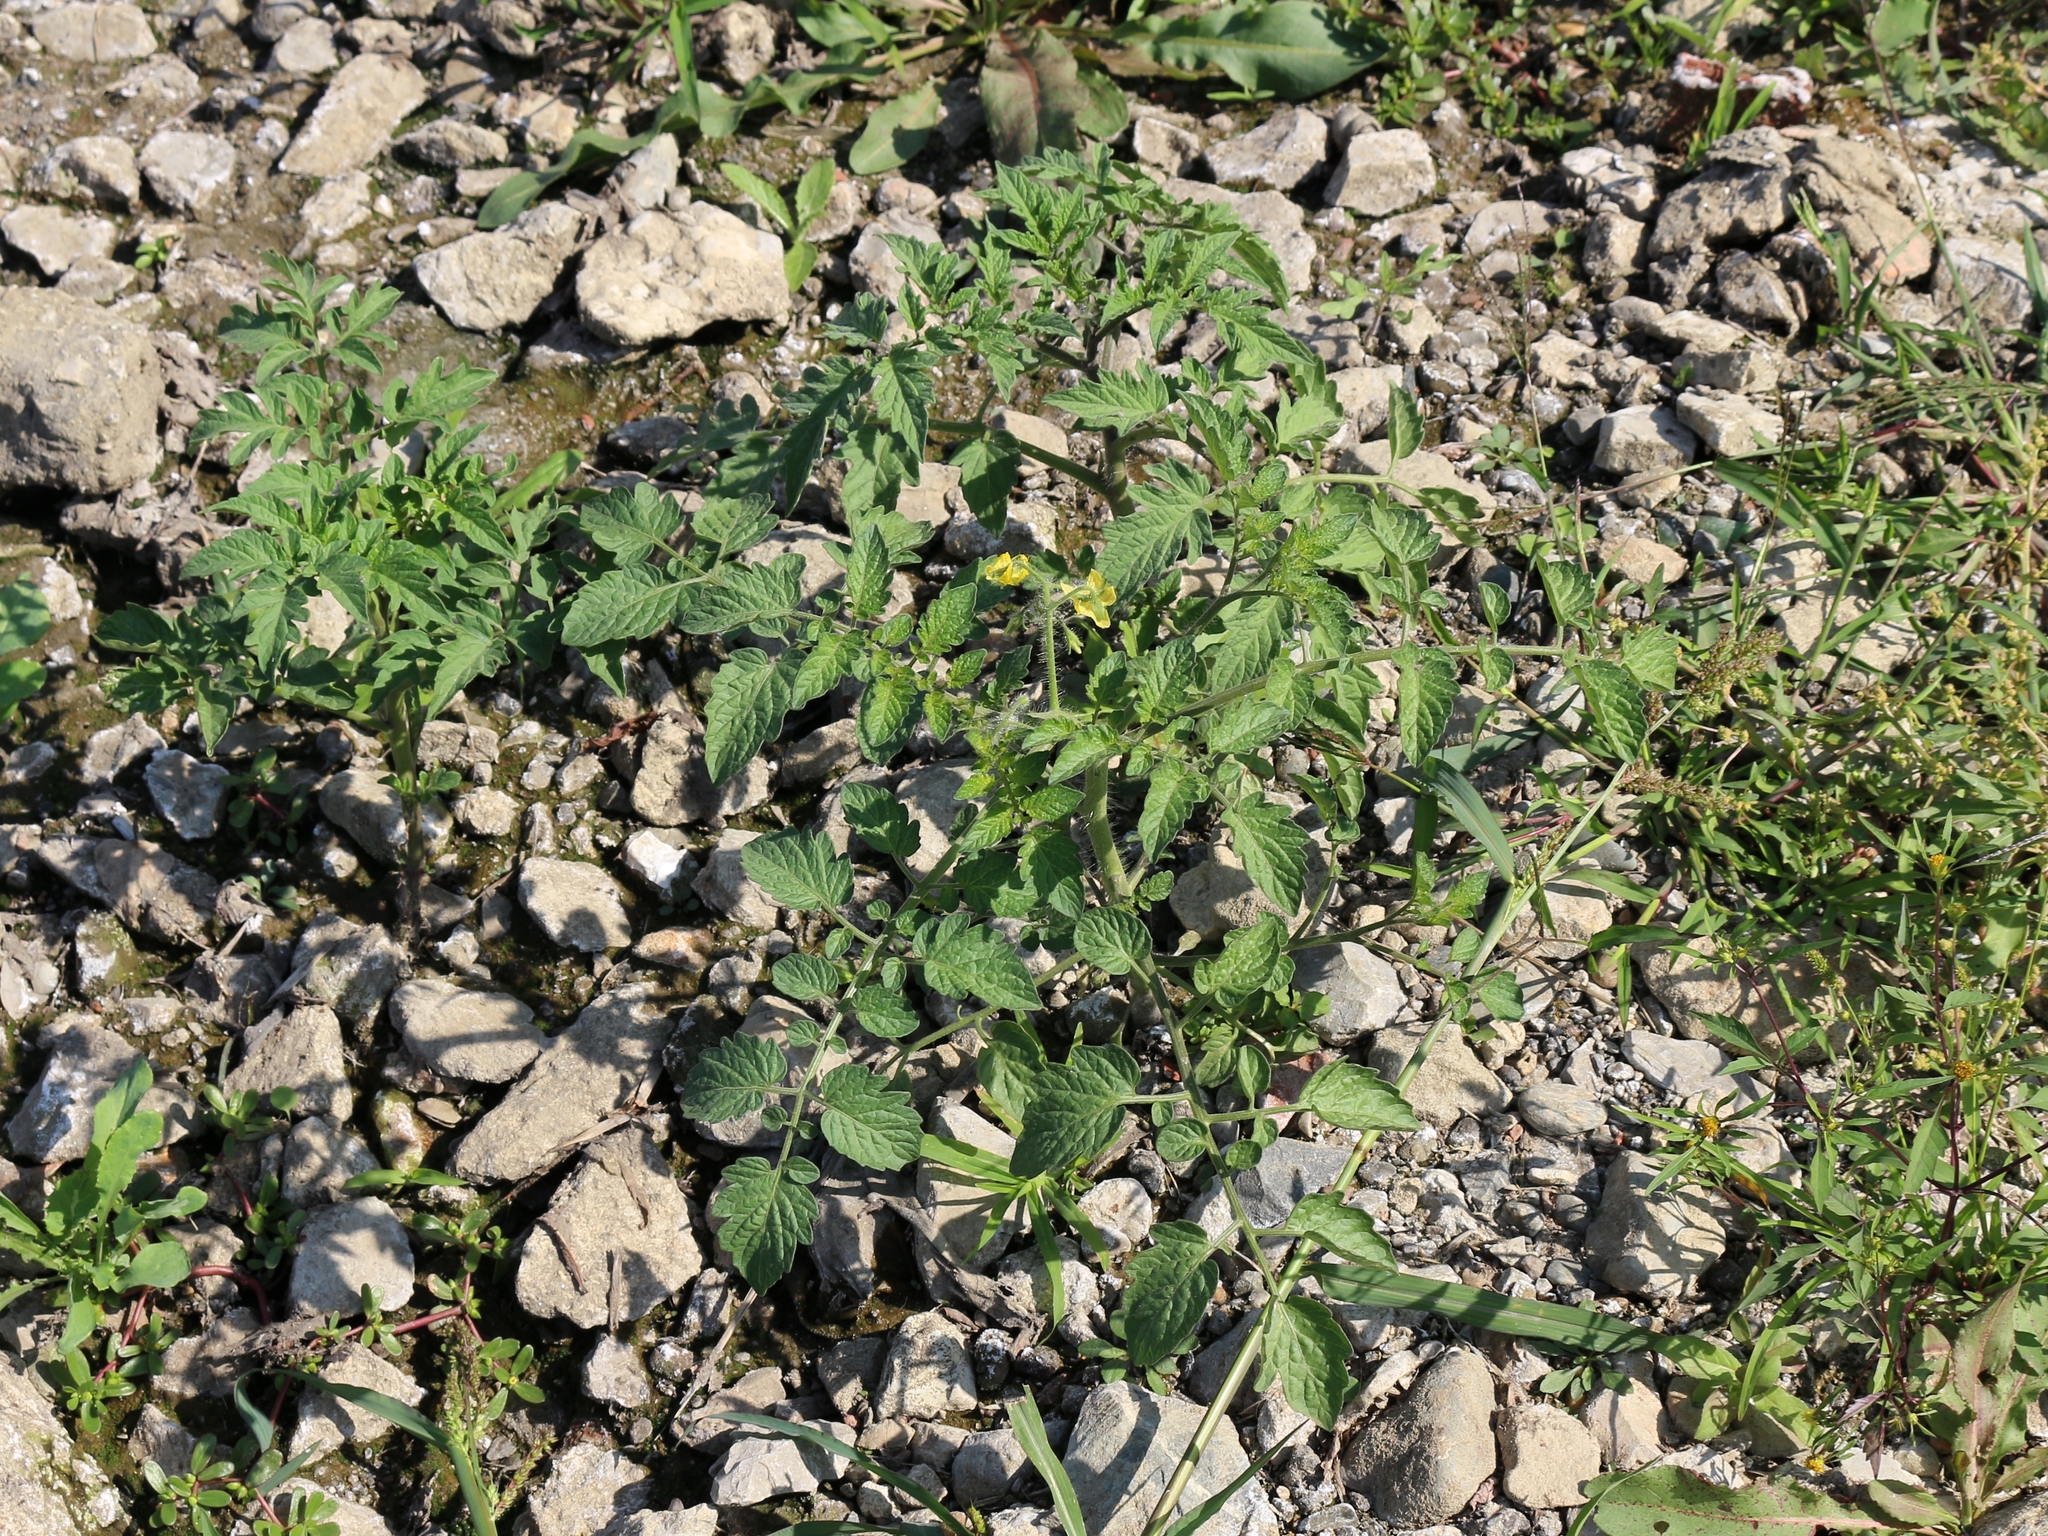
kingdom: Plantae
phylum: Tracheophyta
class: Magnoliopsida
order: Solanales
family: Solanaceae
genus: Solanum
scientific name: Solanum lycopersicum
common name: Garden tomato
